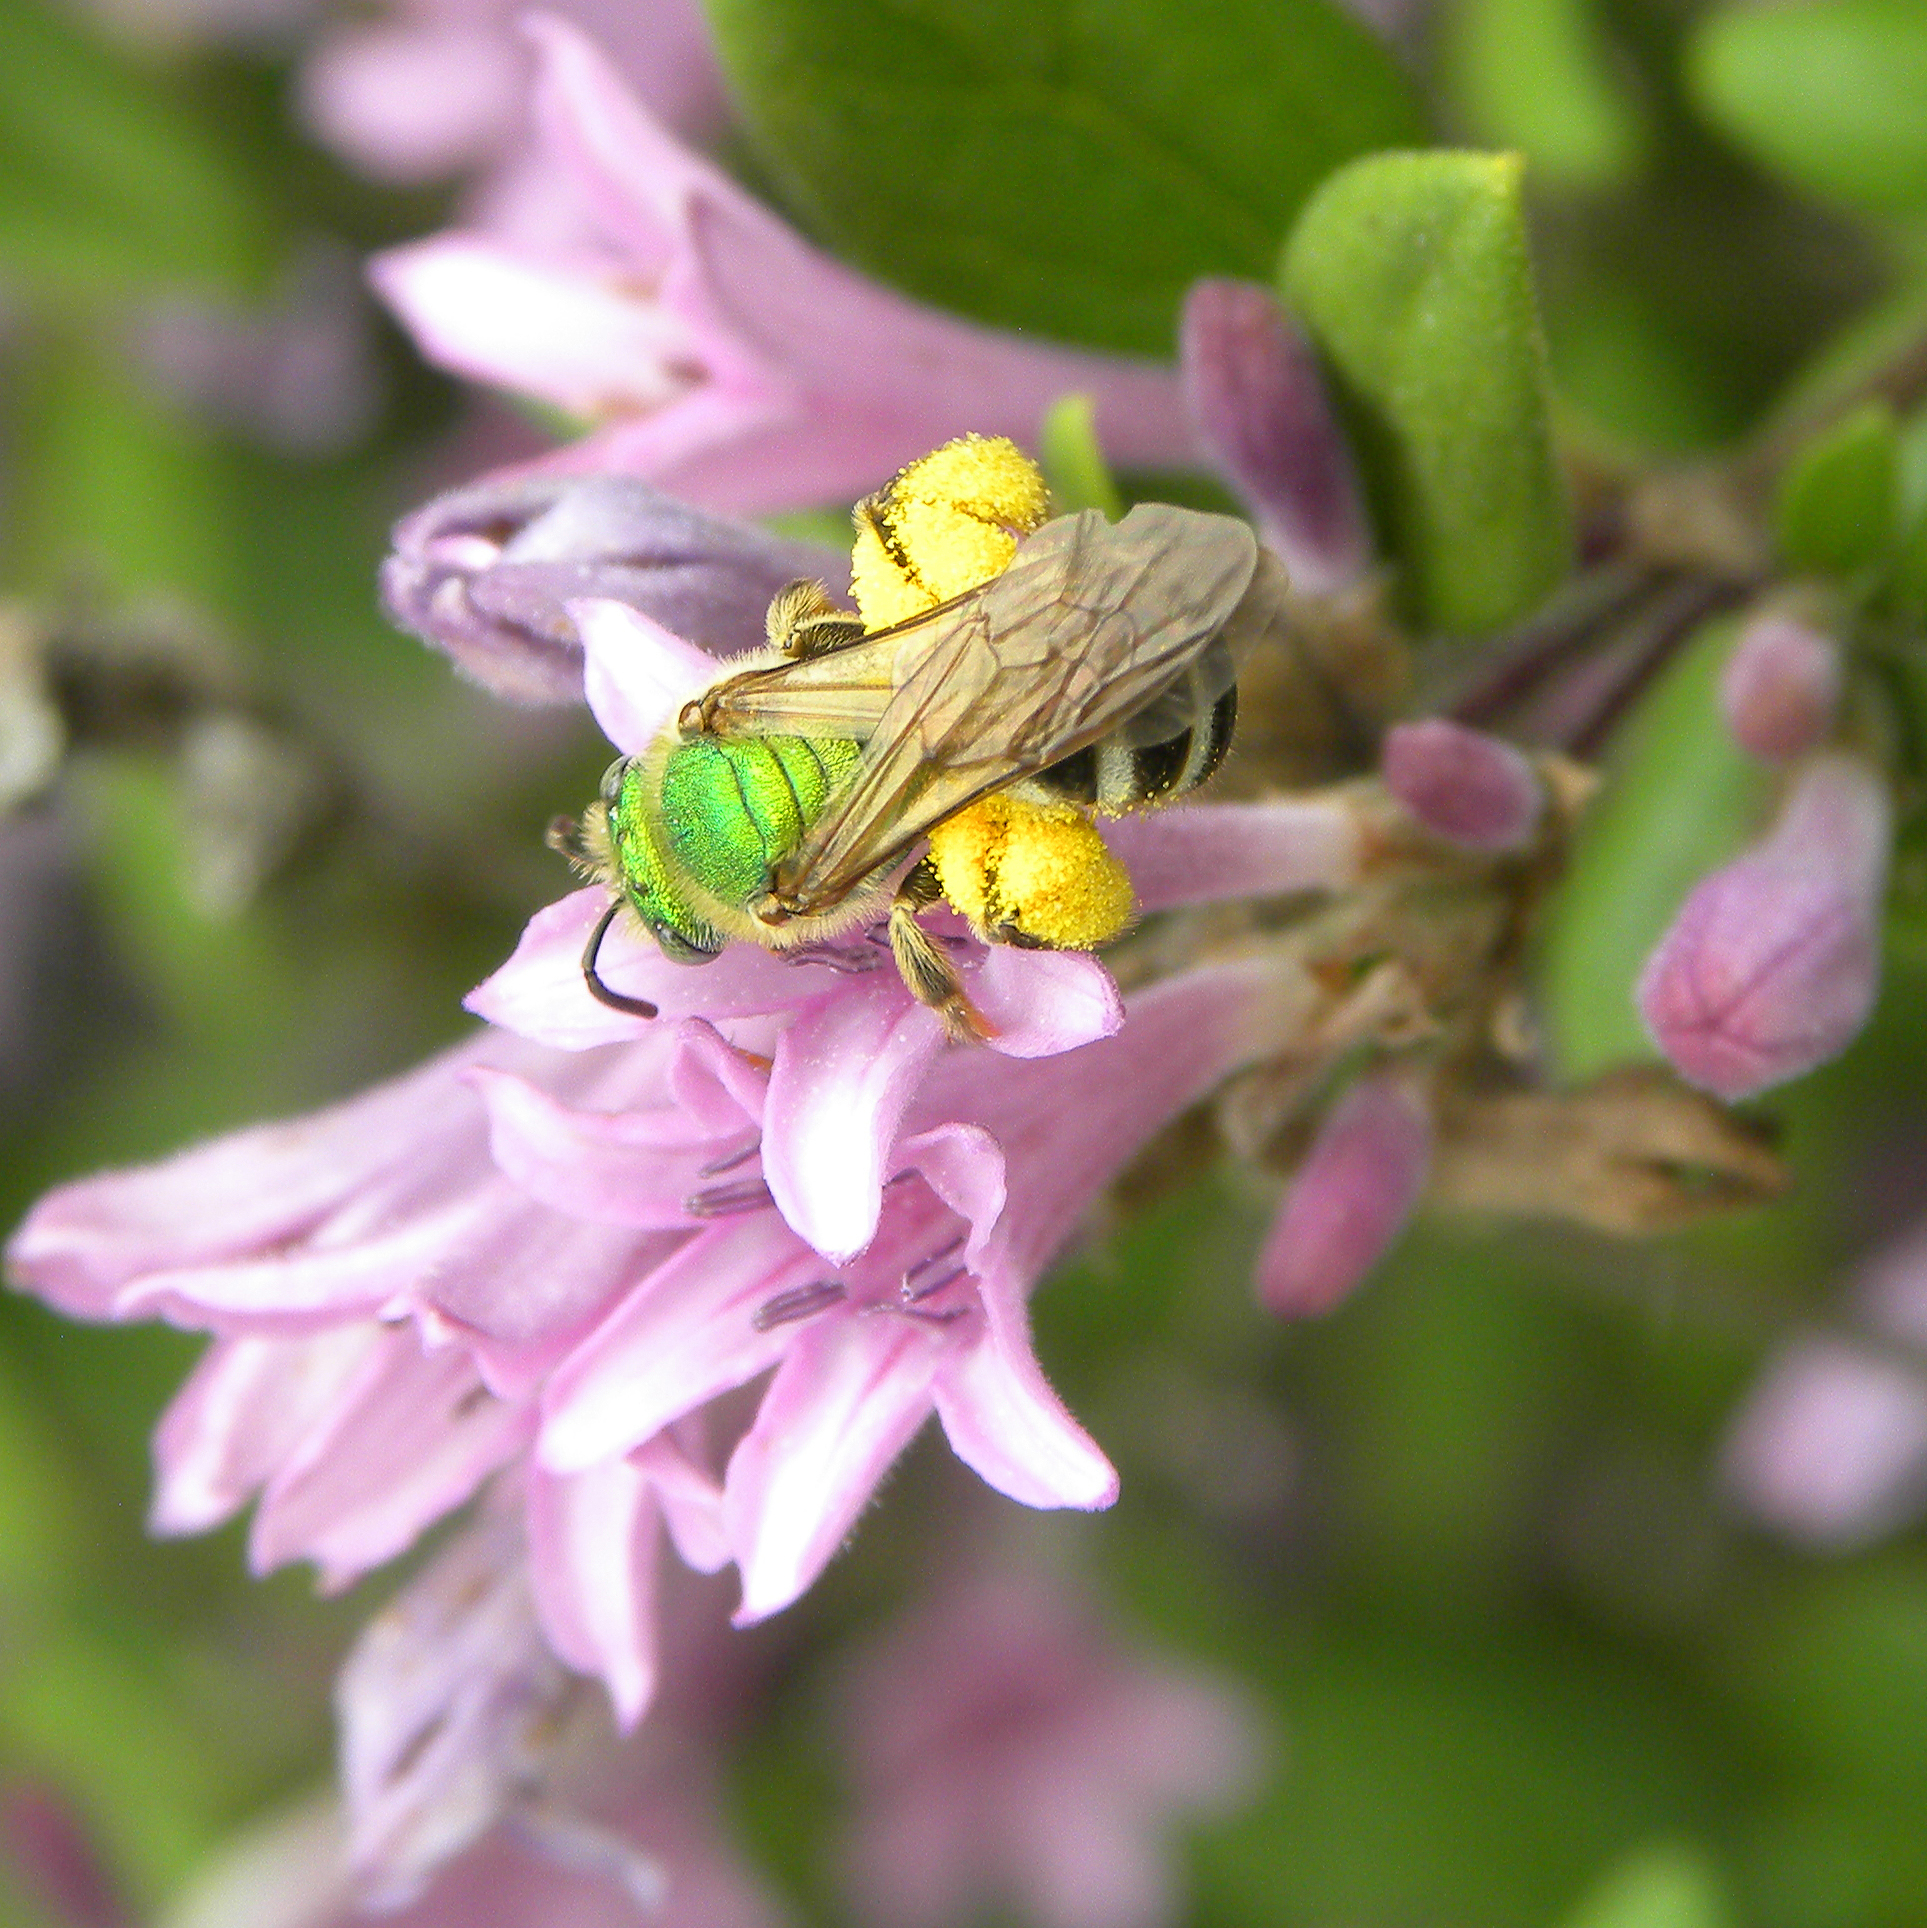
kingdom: Animalia
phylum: Arthropoda
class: Insecta
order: Hymenoptera
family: Halictidae
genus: Agapostemon
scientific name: Agapostemon virescens
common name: Bicolored striped sweat bee
